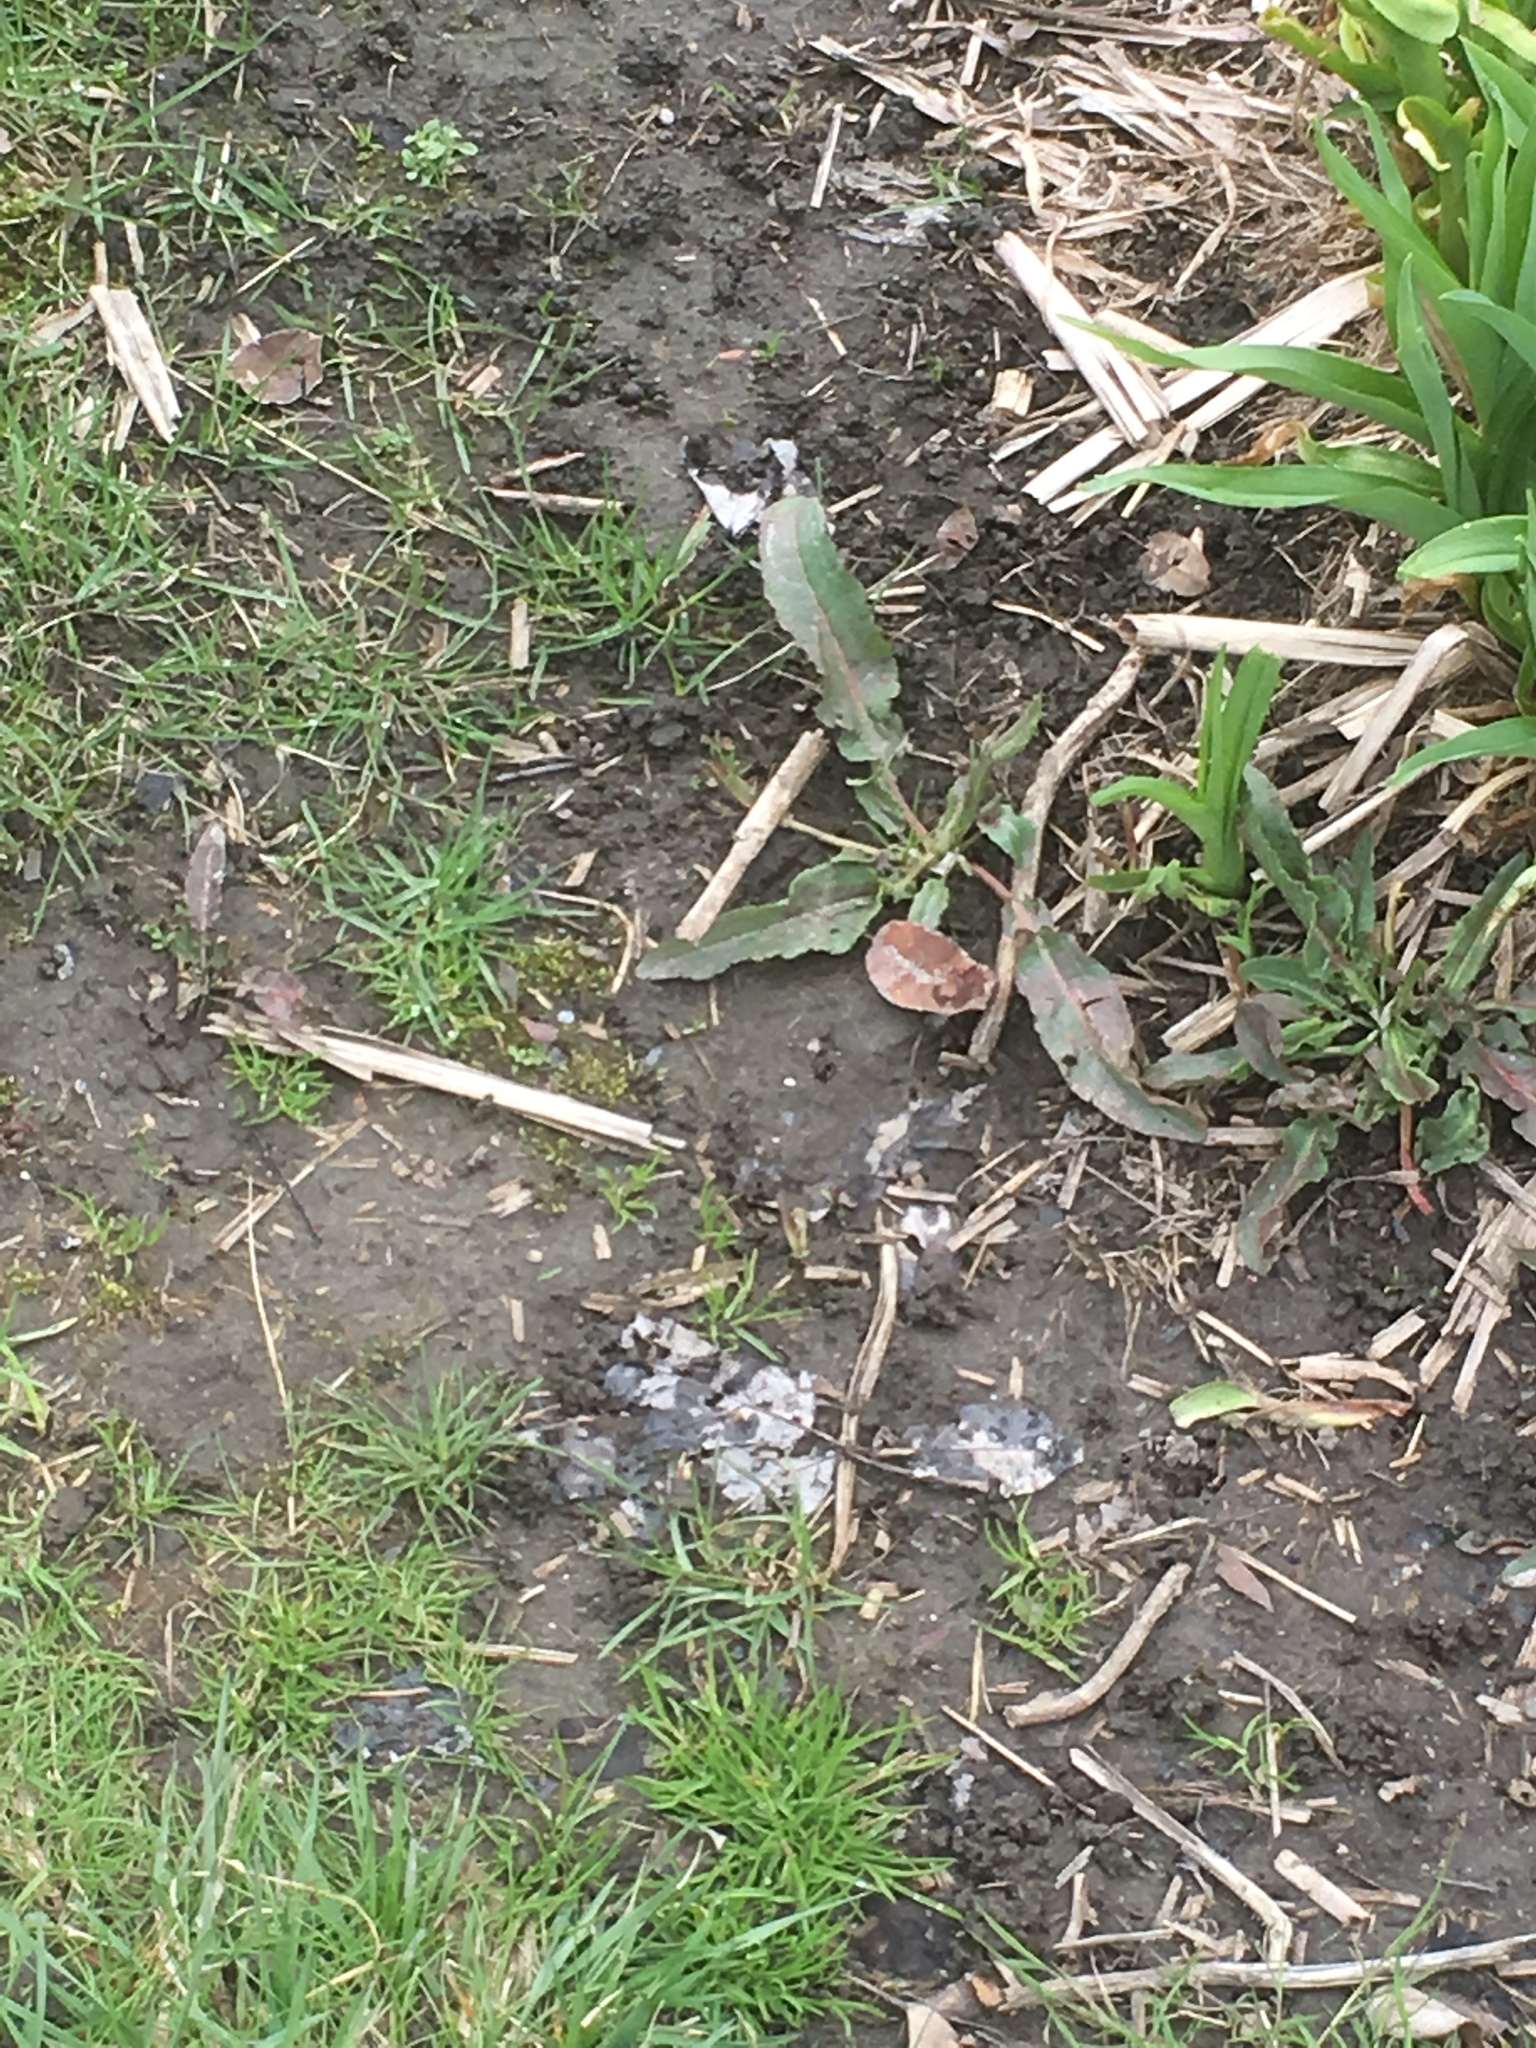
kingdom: Plantae
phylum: Tracheophyta
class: Magnoliopsida
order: Caryophyllales
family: Polygonaceae
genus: Rumex
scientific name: Rumex crispus
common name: Curled dock
